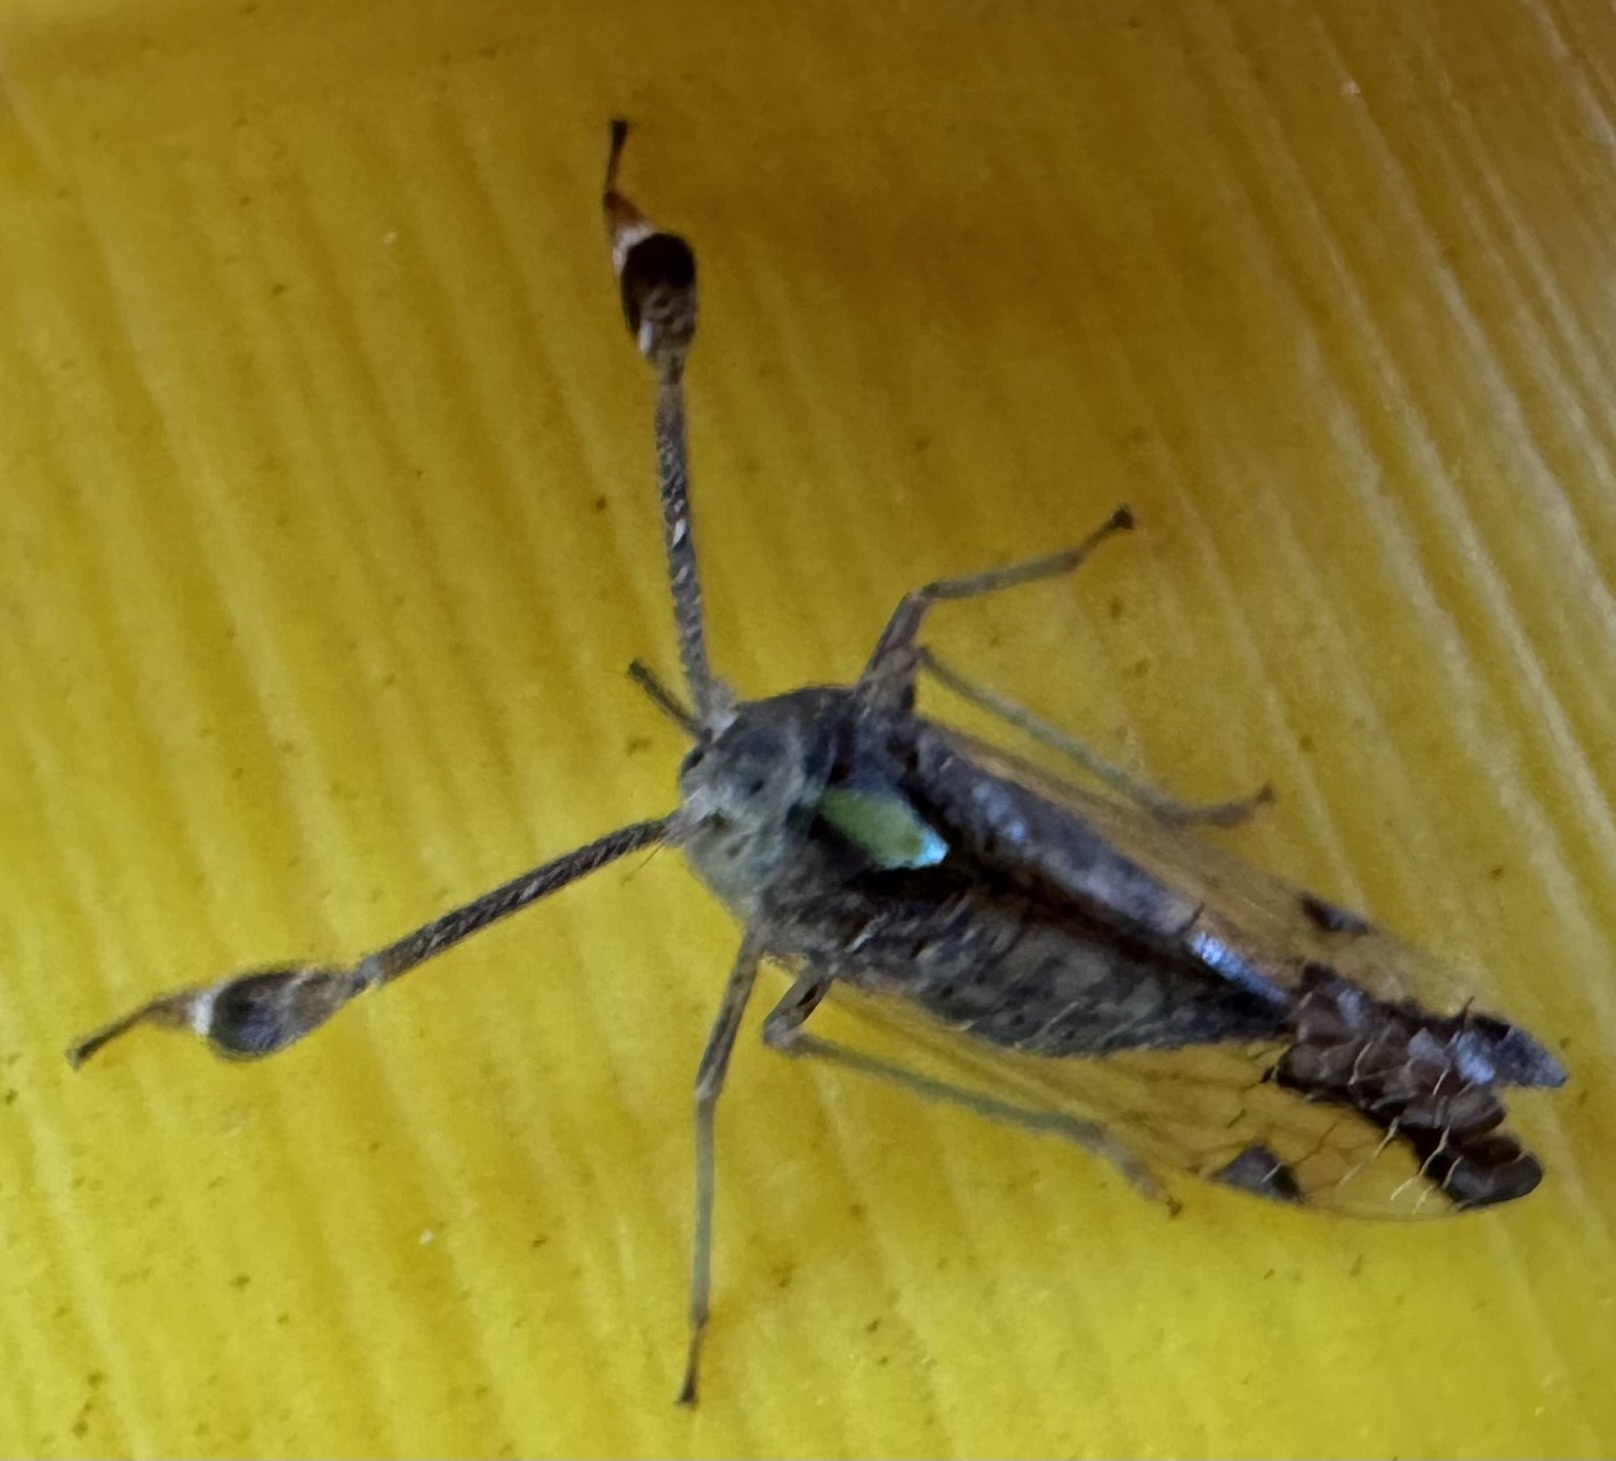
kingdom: Animalia
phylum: Arthropoda
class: Insecta
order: Hemiptera
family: Dictyopharidae
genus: Raphiophora
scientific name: Raphiophora intricata
